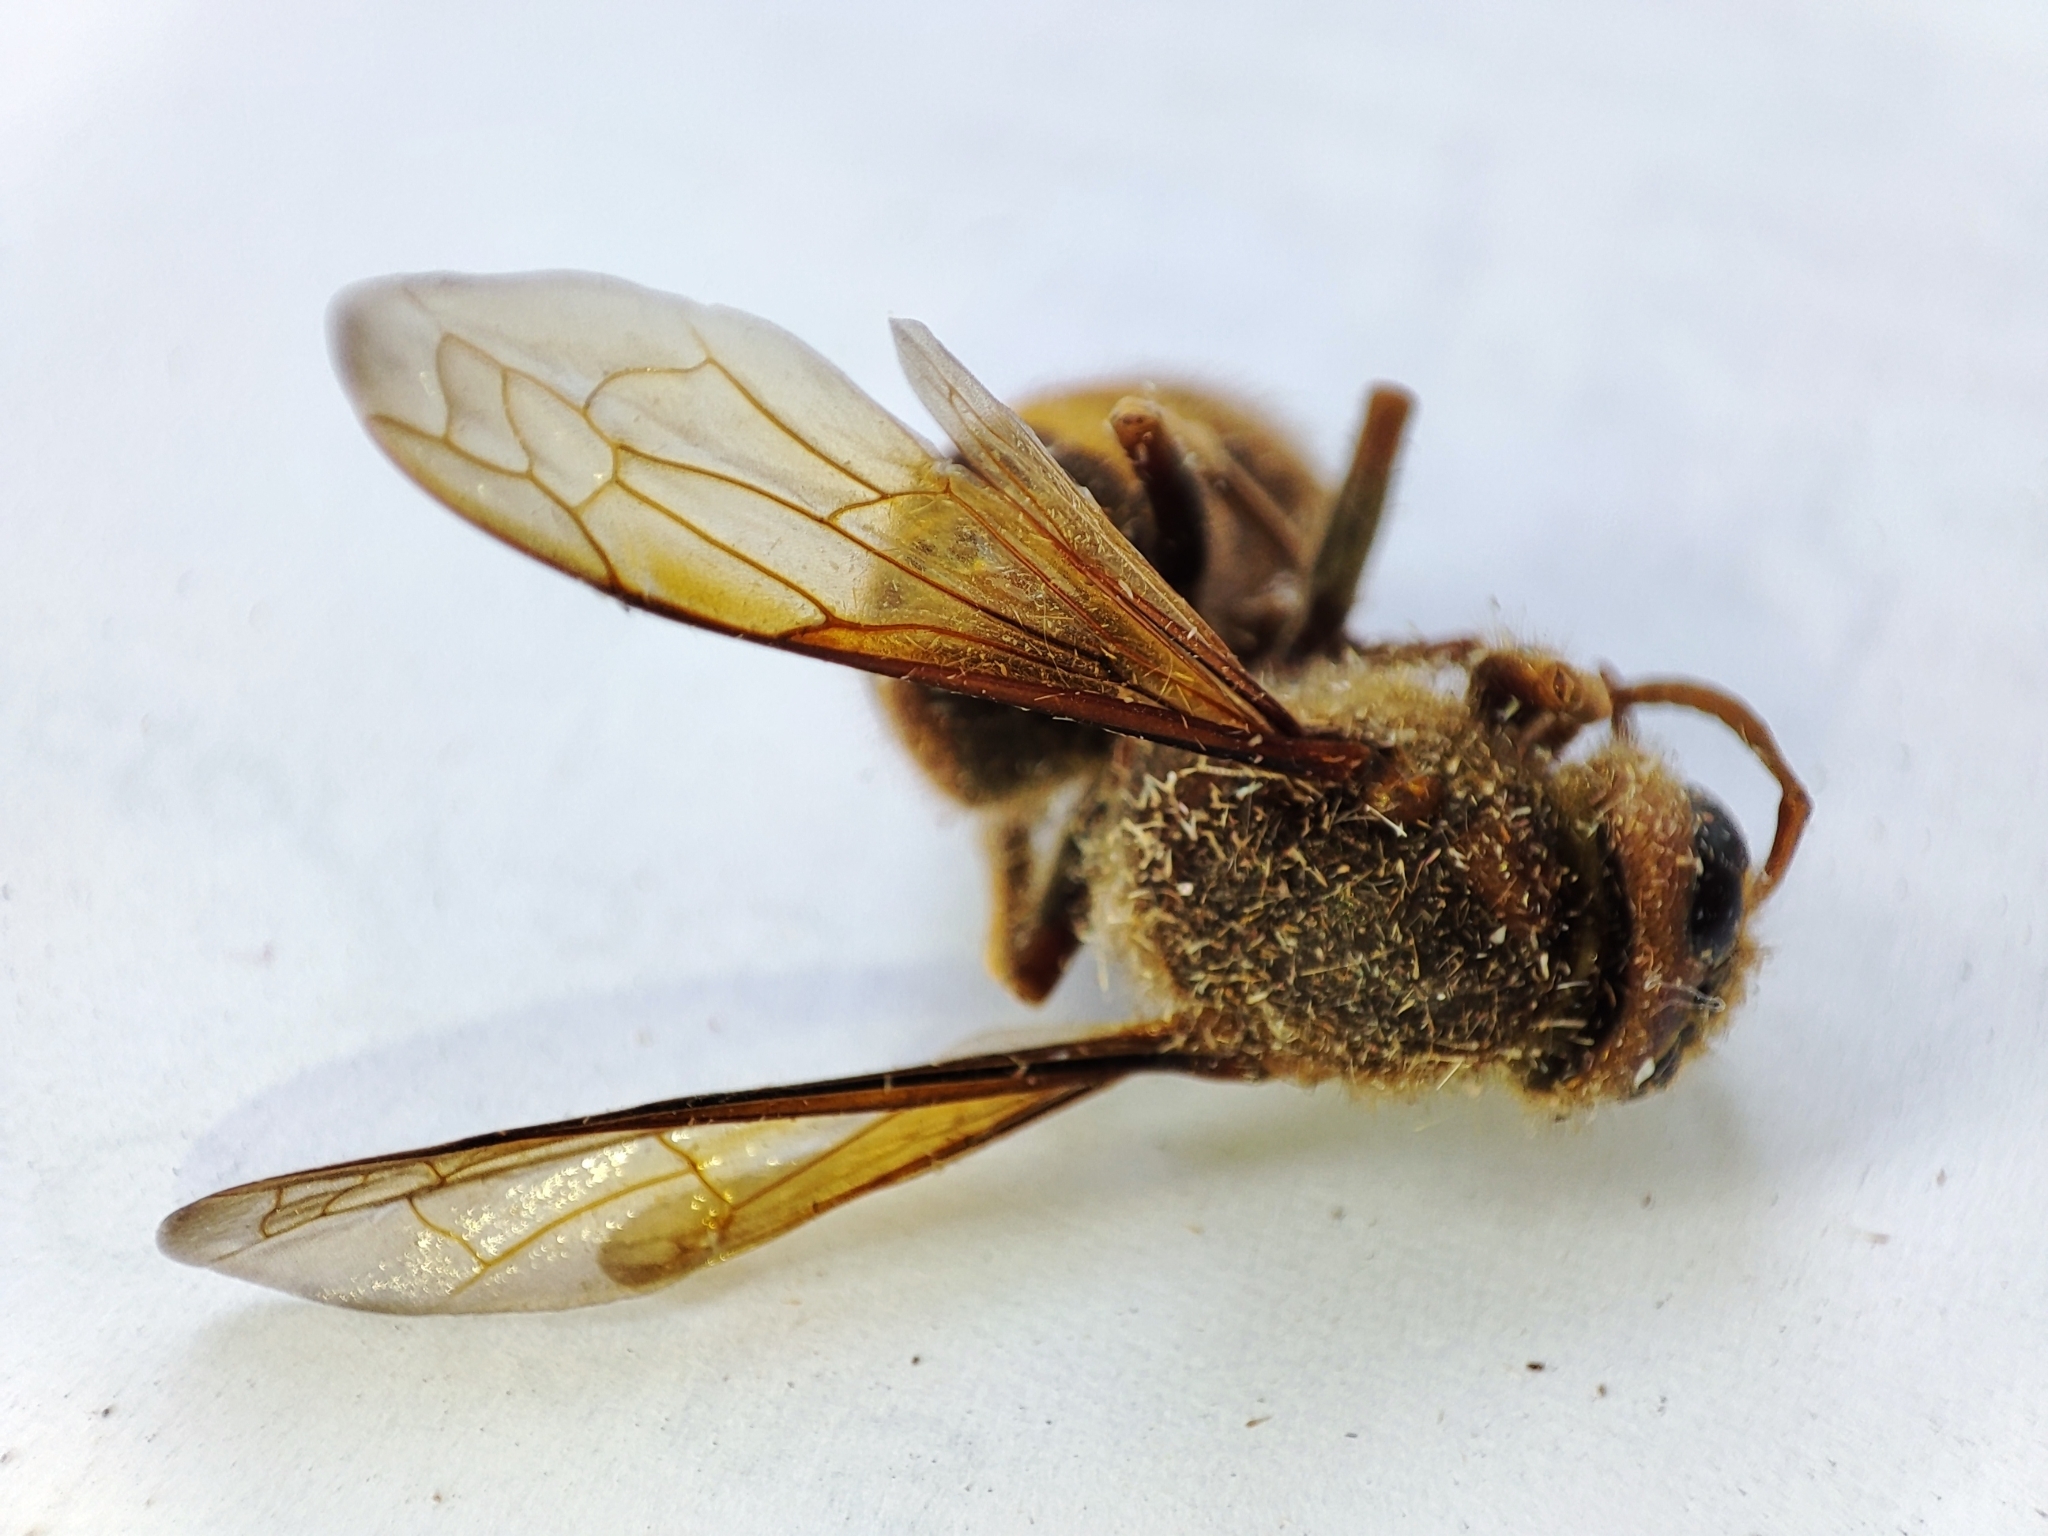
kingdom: Animalia
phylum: Arthropoda
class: Insecta
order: Hymenoptera
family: Vespidae
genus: Vespa
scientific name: Vespa crabro
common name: Hornet
